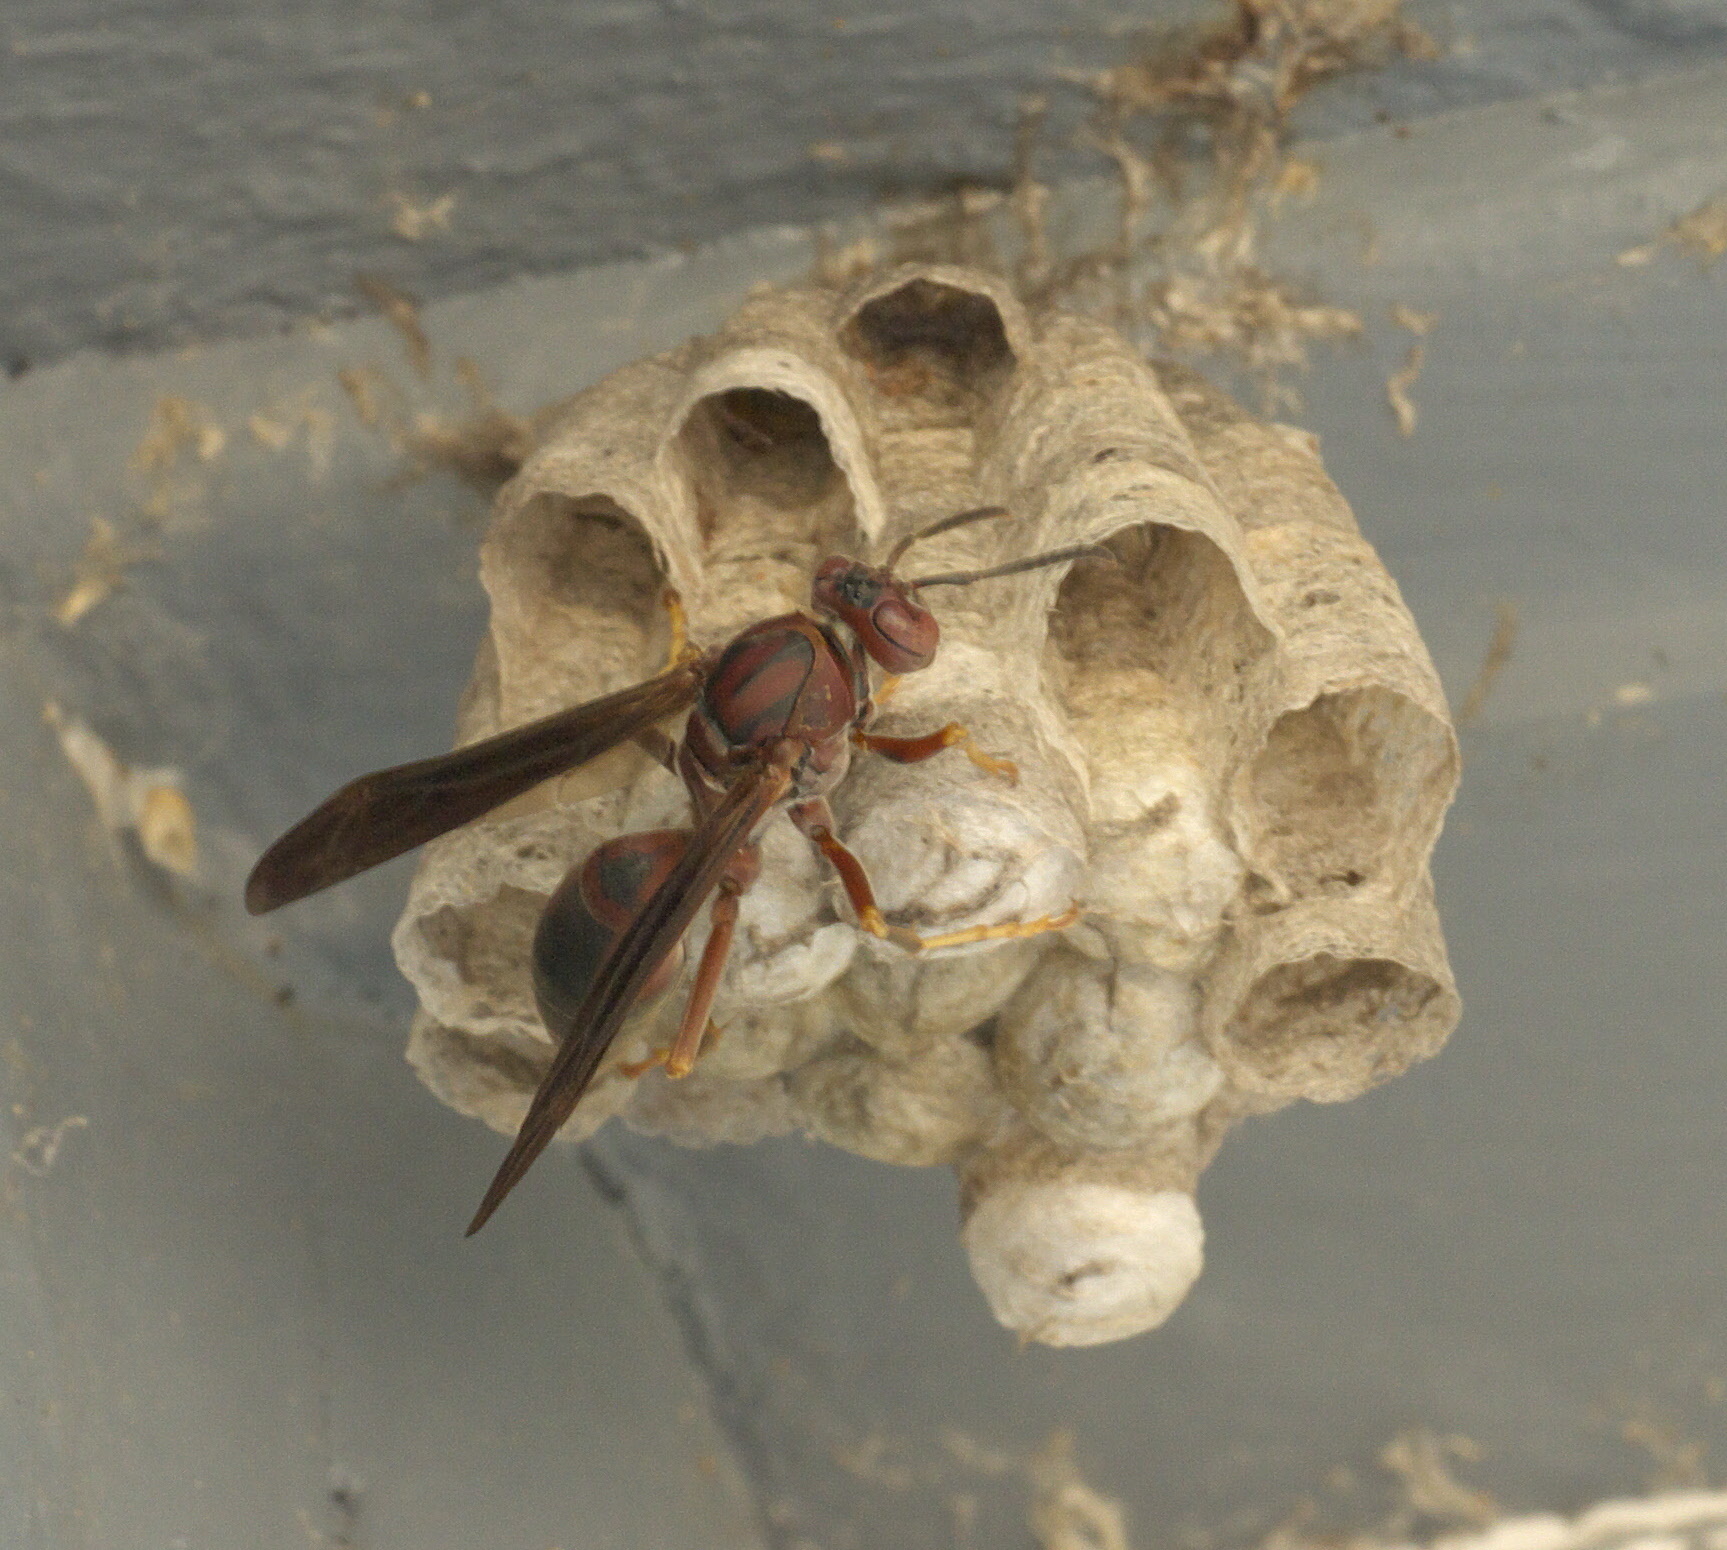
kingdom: Animalia
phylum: Arthropoda
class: Insecta
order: Hymenoptera
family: Eumenidae
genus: Polistes
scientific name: Polistes metricus
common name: Metric paper wasp
